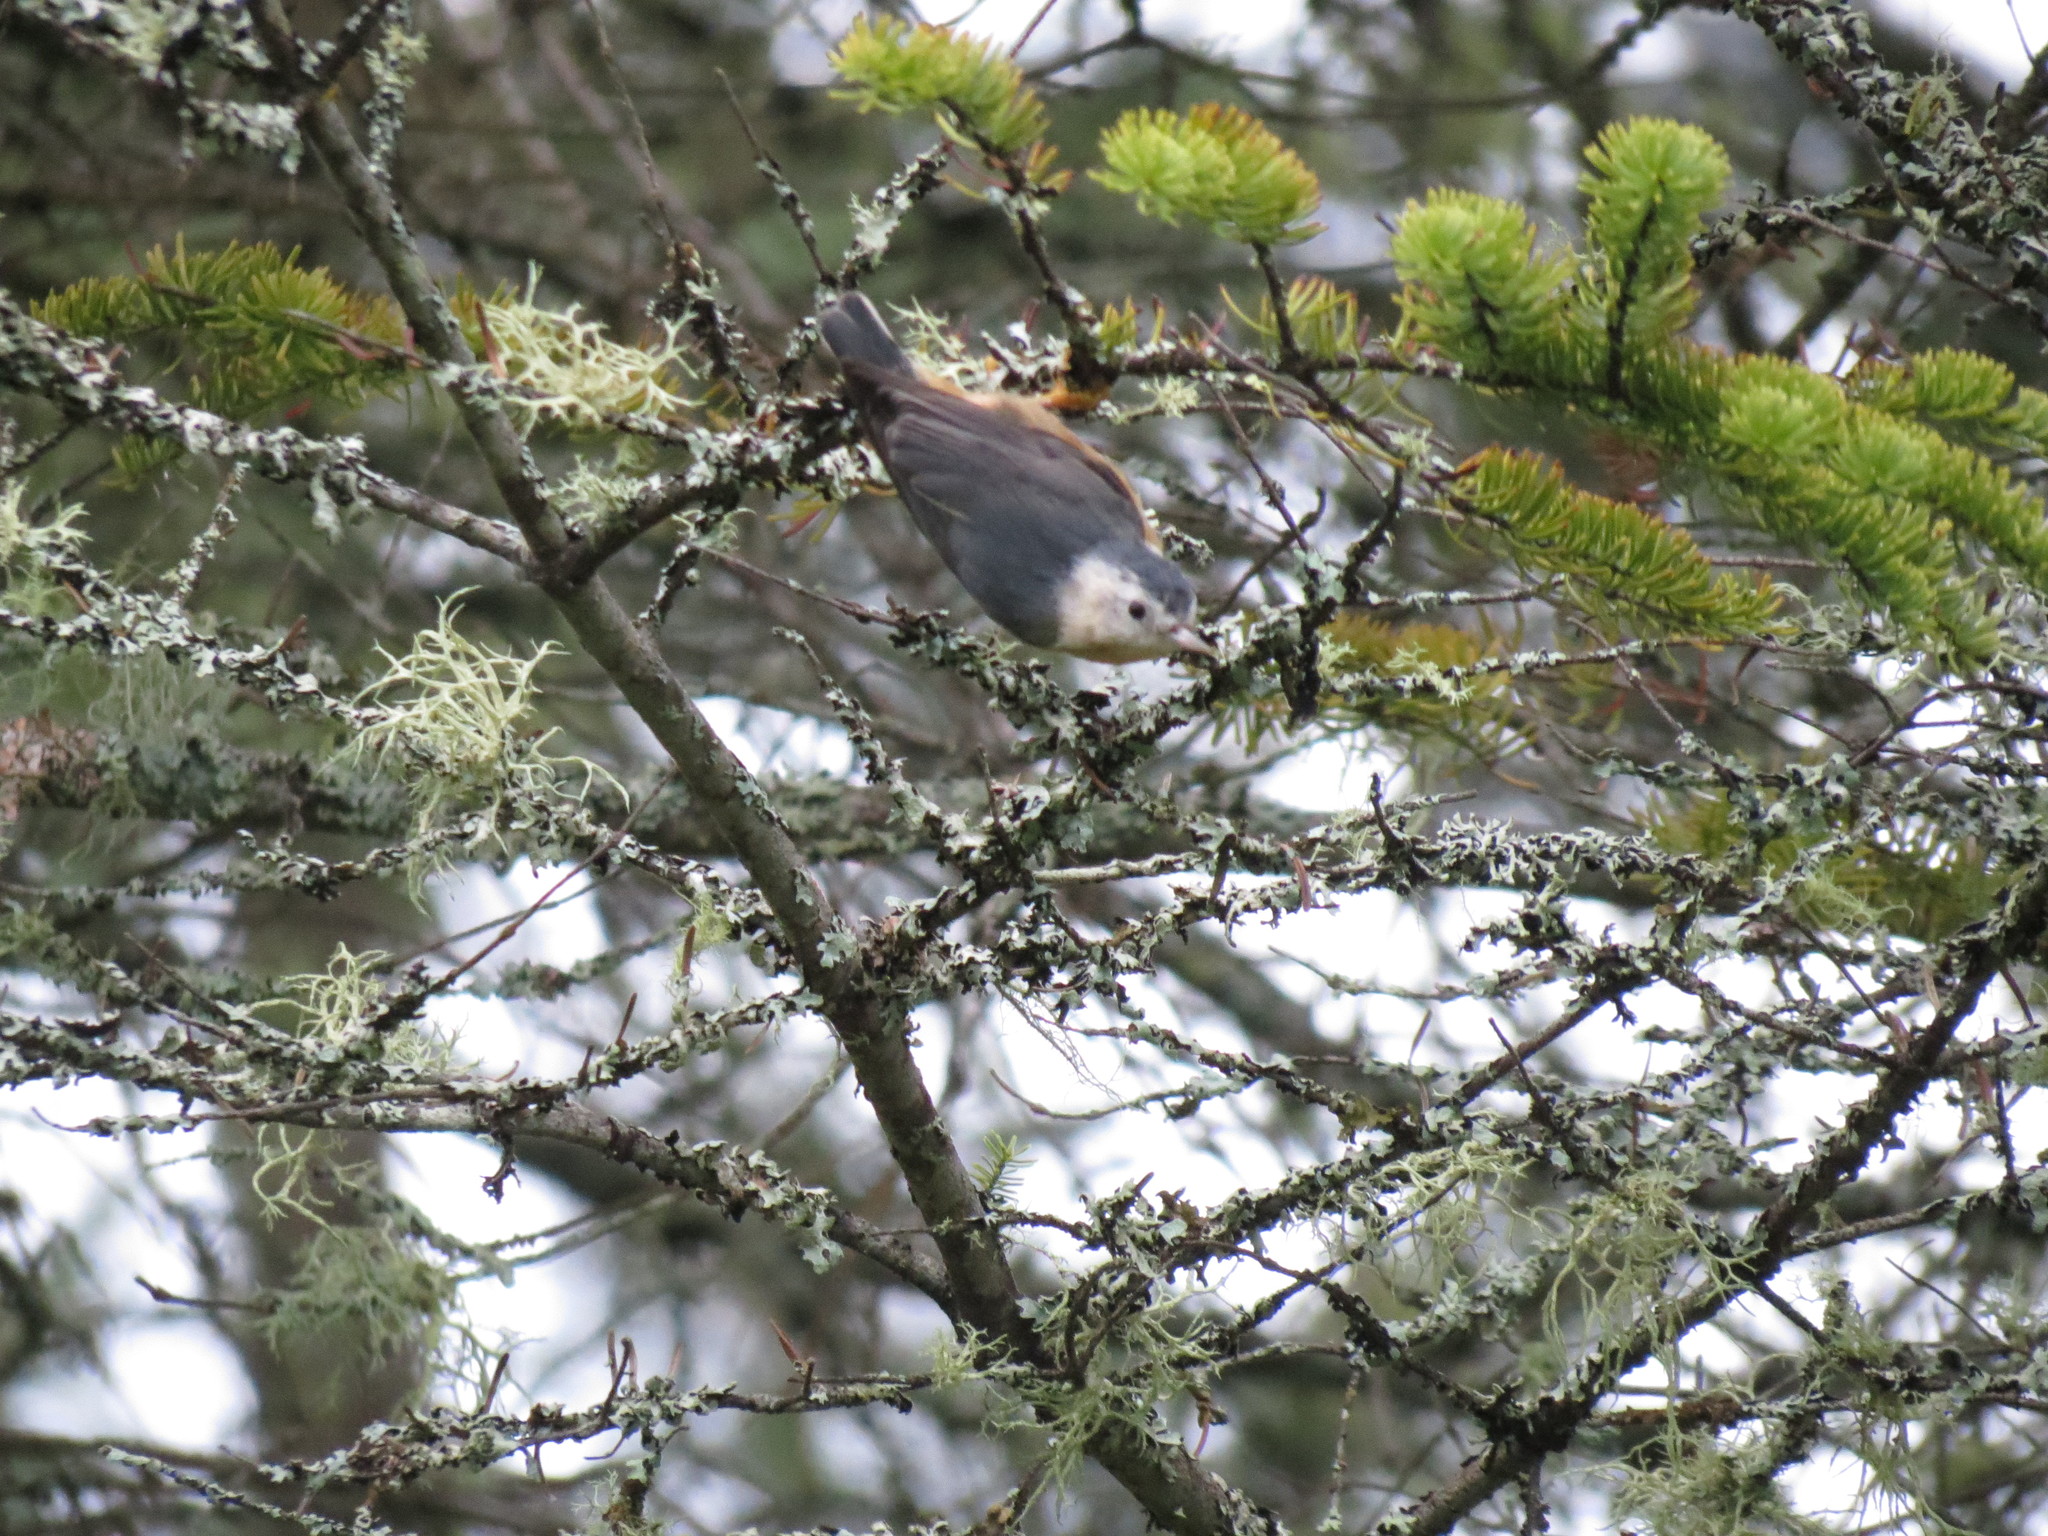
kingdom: Animalia
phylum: Chordata
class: Aves
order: Passeriformes
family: Sittidae
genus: Sitta
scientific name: Sitta canadensis
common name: Red-breasted nuthatch
